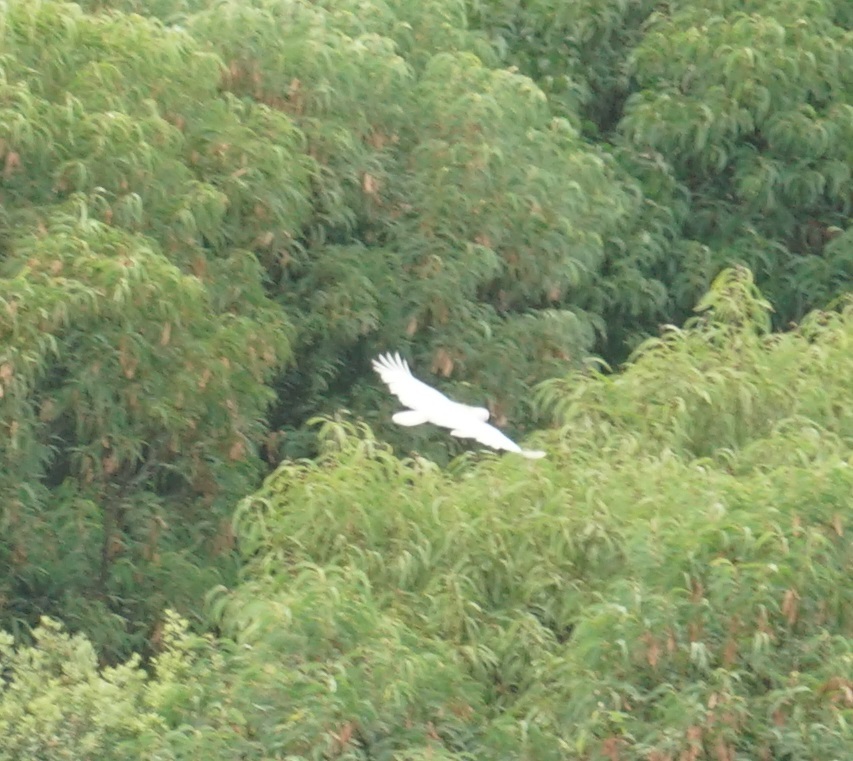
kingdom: Animalia
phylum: Chordata
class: Aves
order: Psittaciformes
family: Psittacidae
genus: Cacatua
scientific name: Cacatua galerita
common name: Sulphur-crested cockatoo
